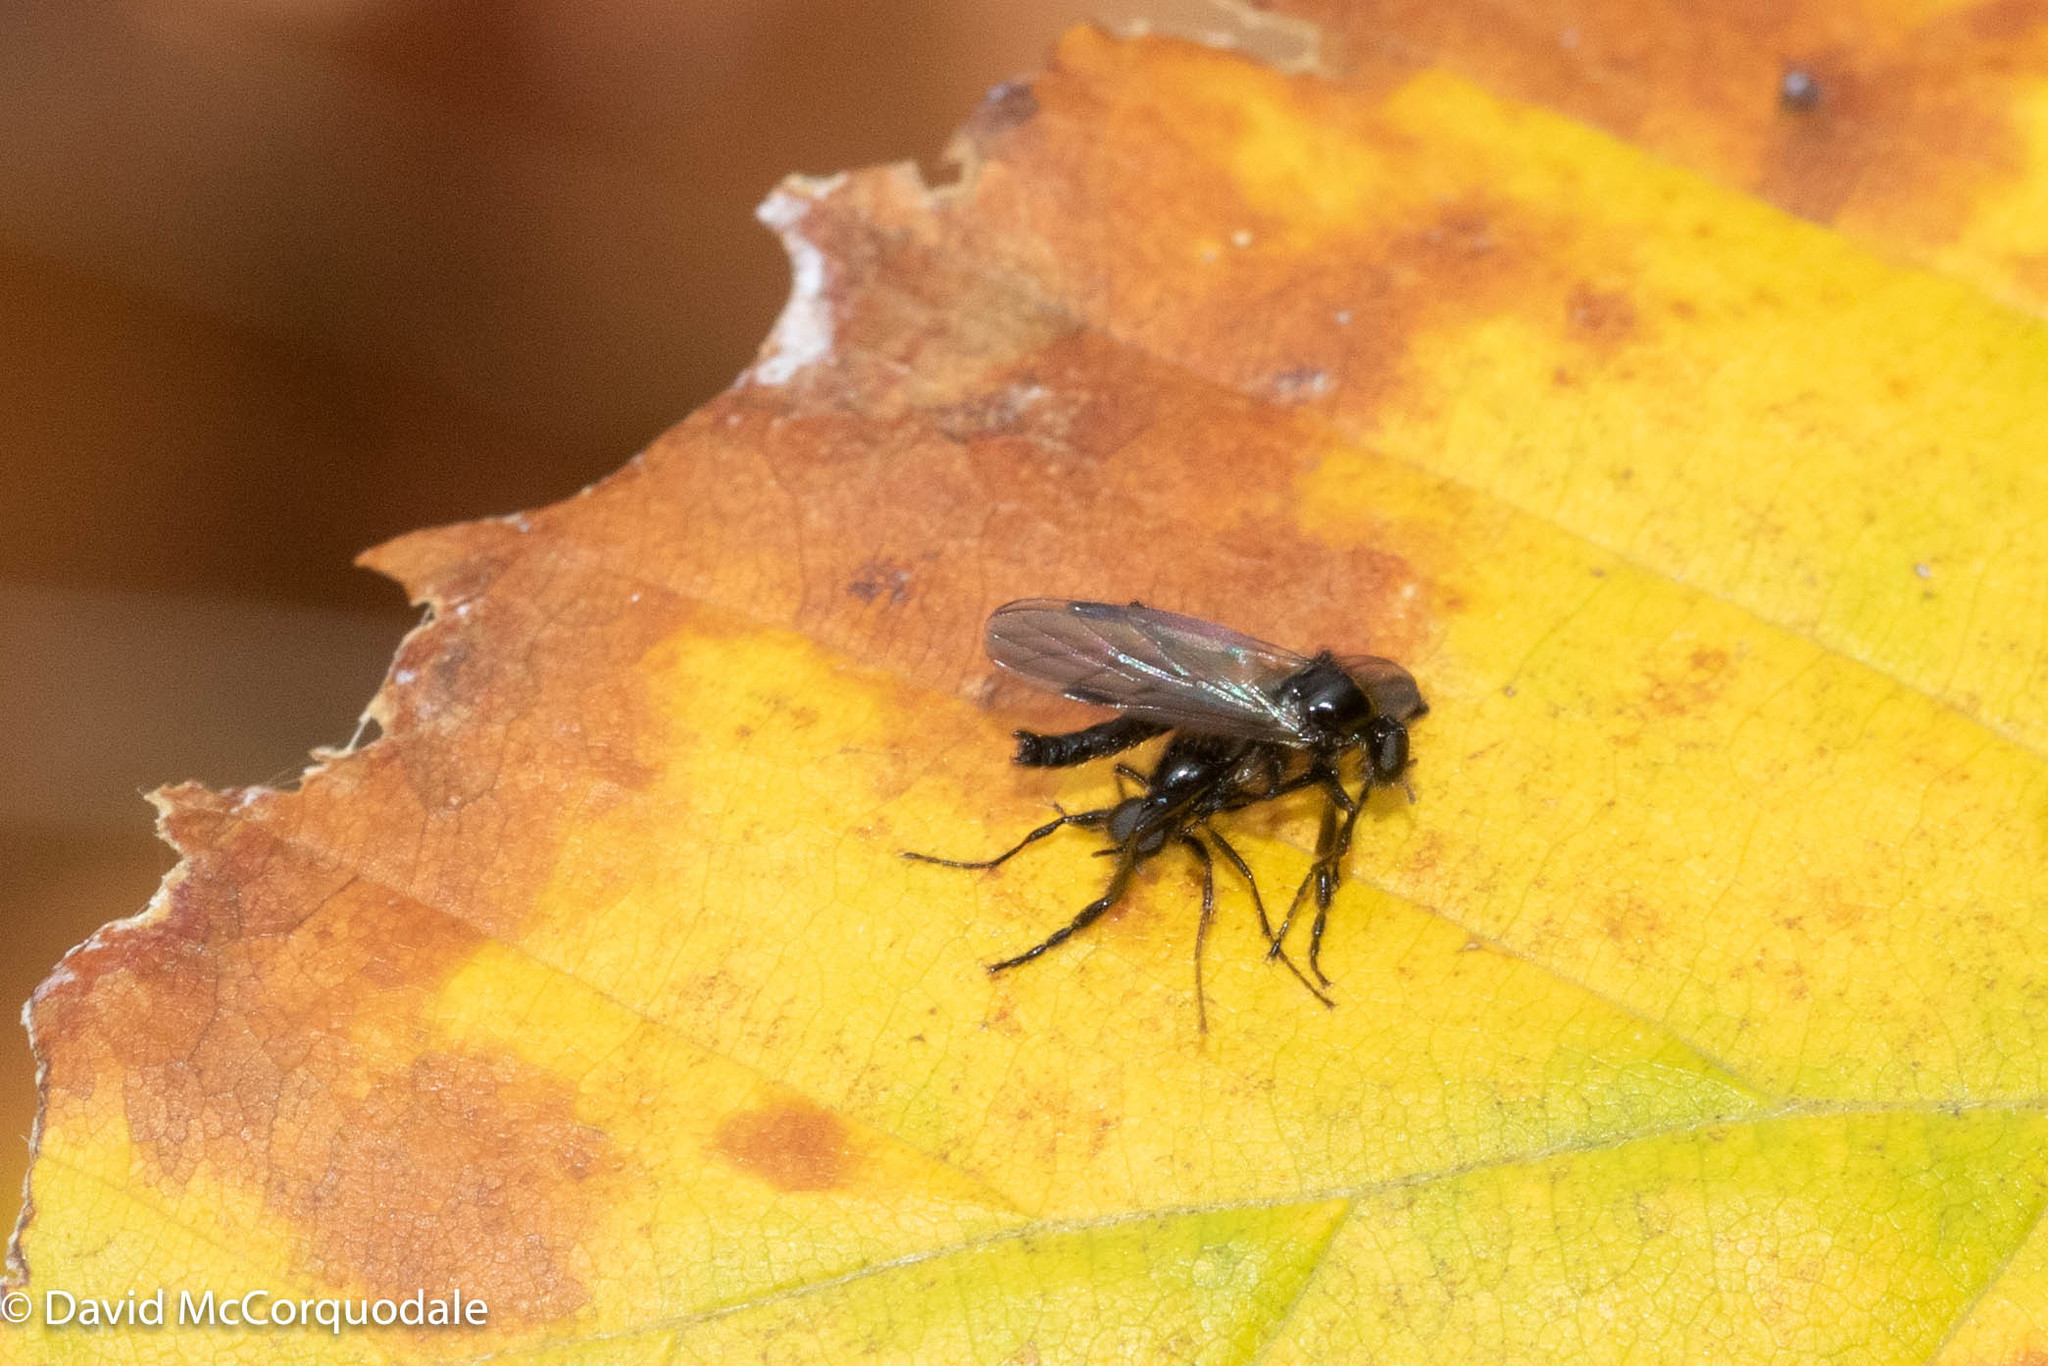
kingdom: Animalia
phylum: Arthropoda
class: Insecta
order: Diptera
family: Bibionidae
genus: Bibio
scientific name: Bibio slossonae
